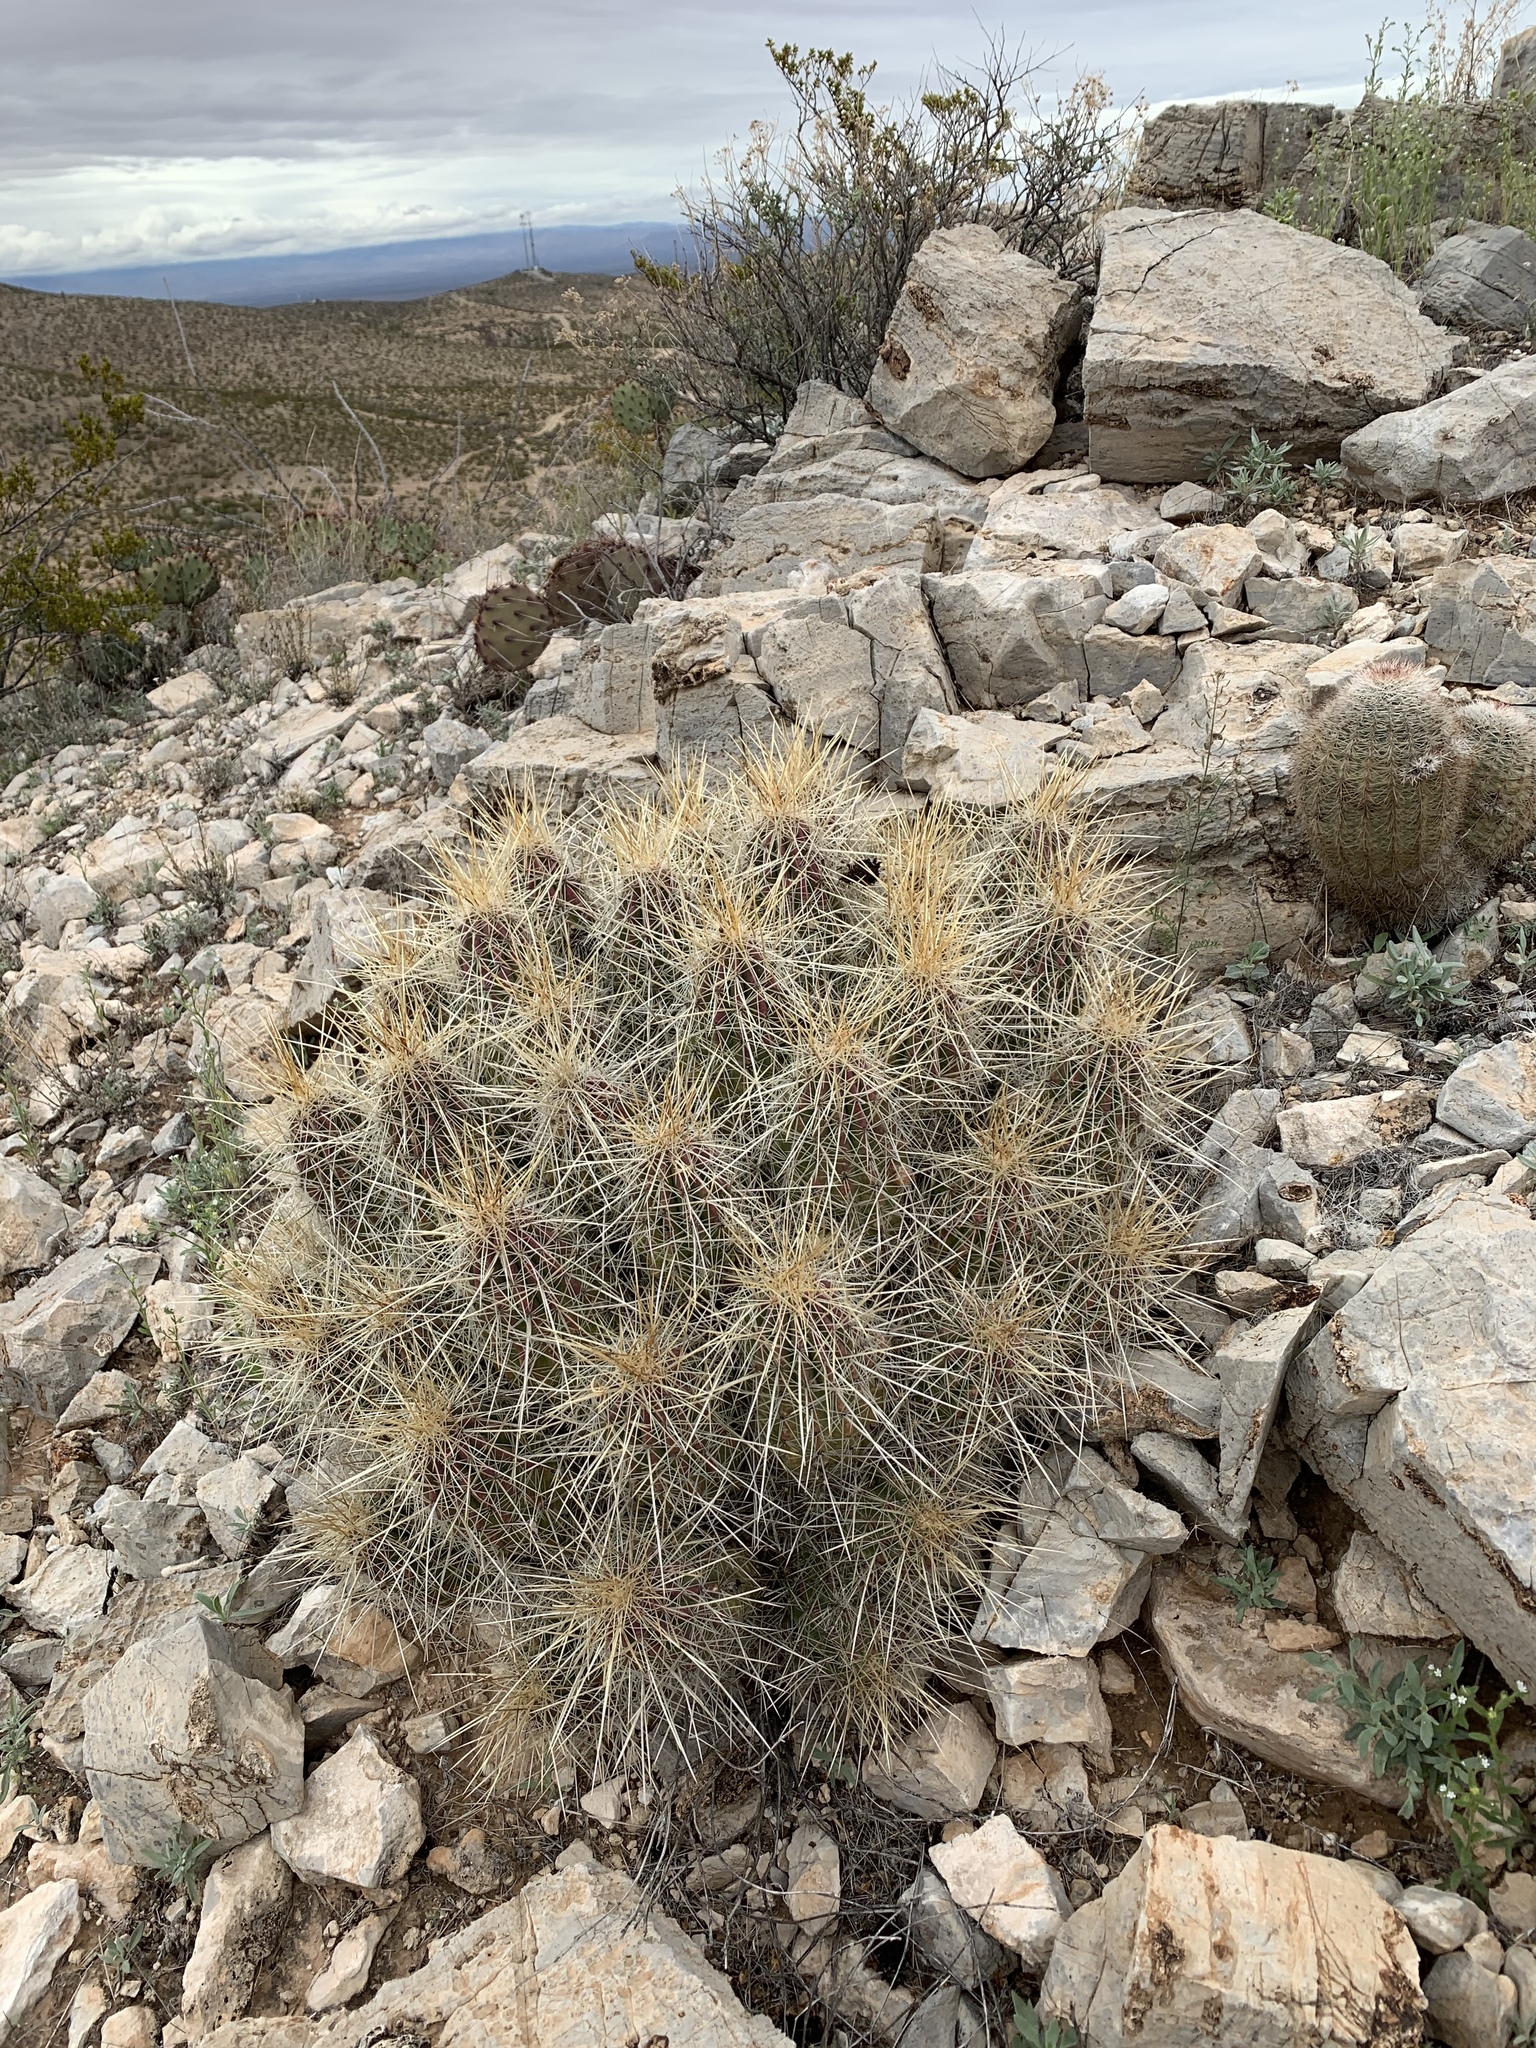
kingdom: Plantae
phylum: Tracheophyta
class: Magnoliopsida
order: Caryophyllales
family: Cactaceae
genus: Echinocereus
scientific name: Echinocereus stramineus
